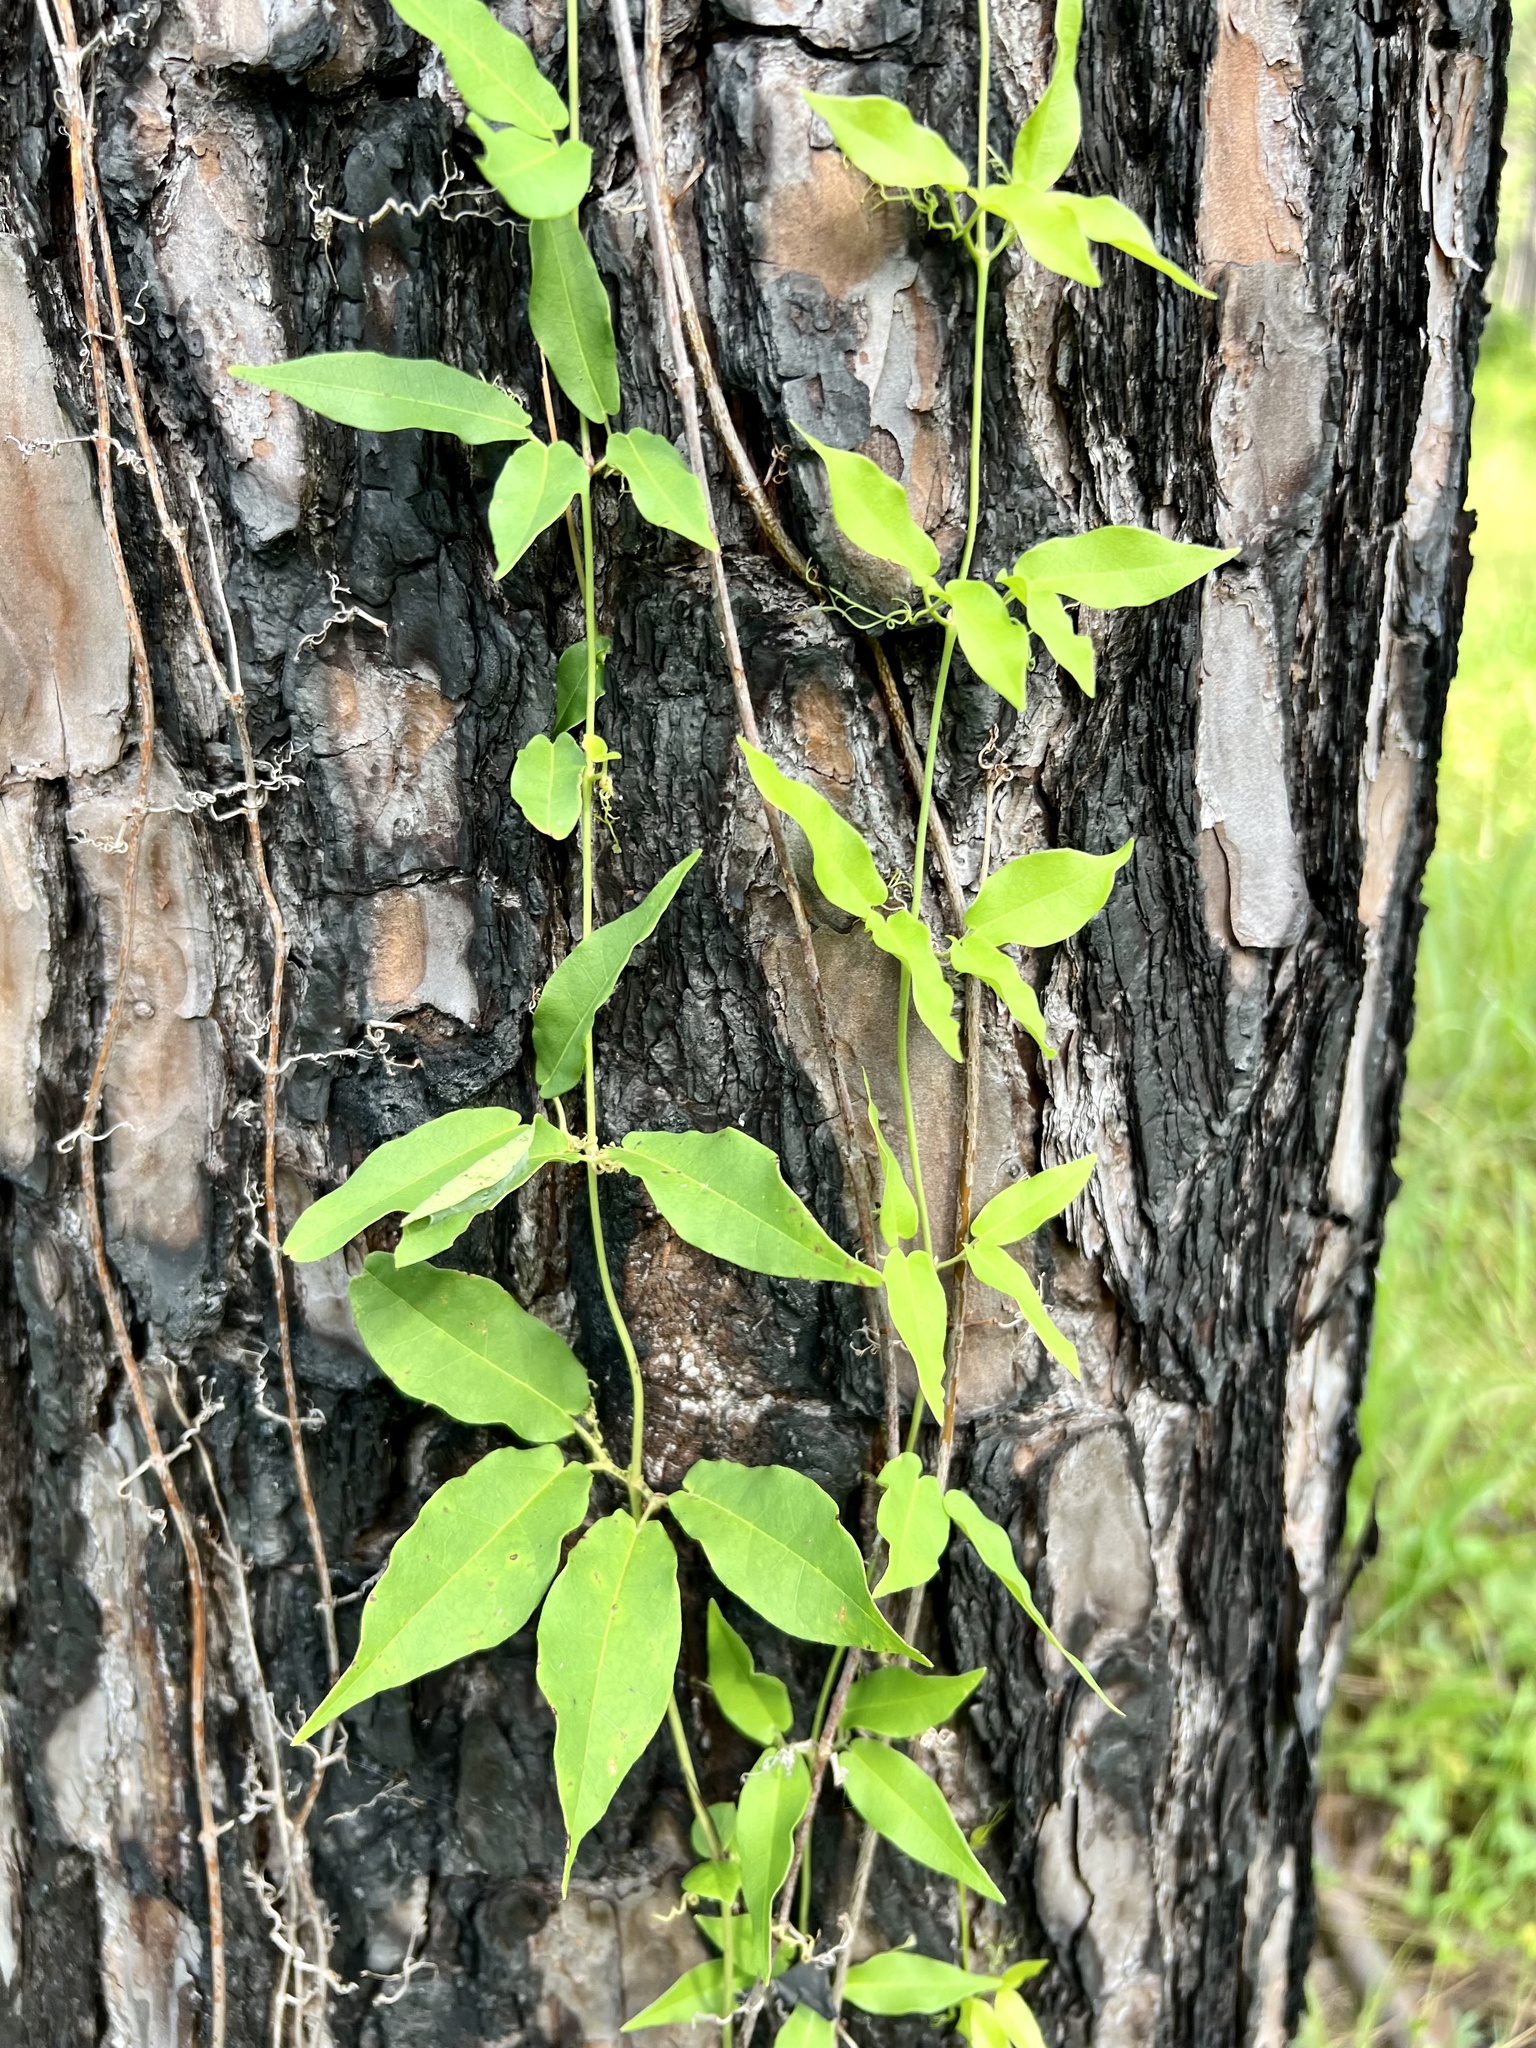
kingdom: Plantae
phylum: Tracheophyta
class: Magnoliopsida
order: Lamiales
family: Bignoniaceae
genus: Bignonia
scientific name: Bignonia capreolata
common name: Crossvine
